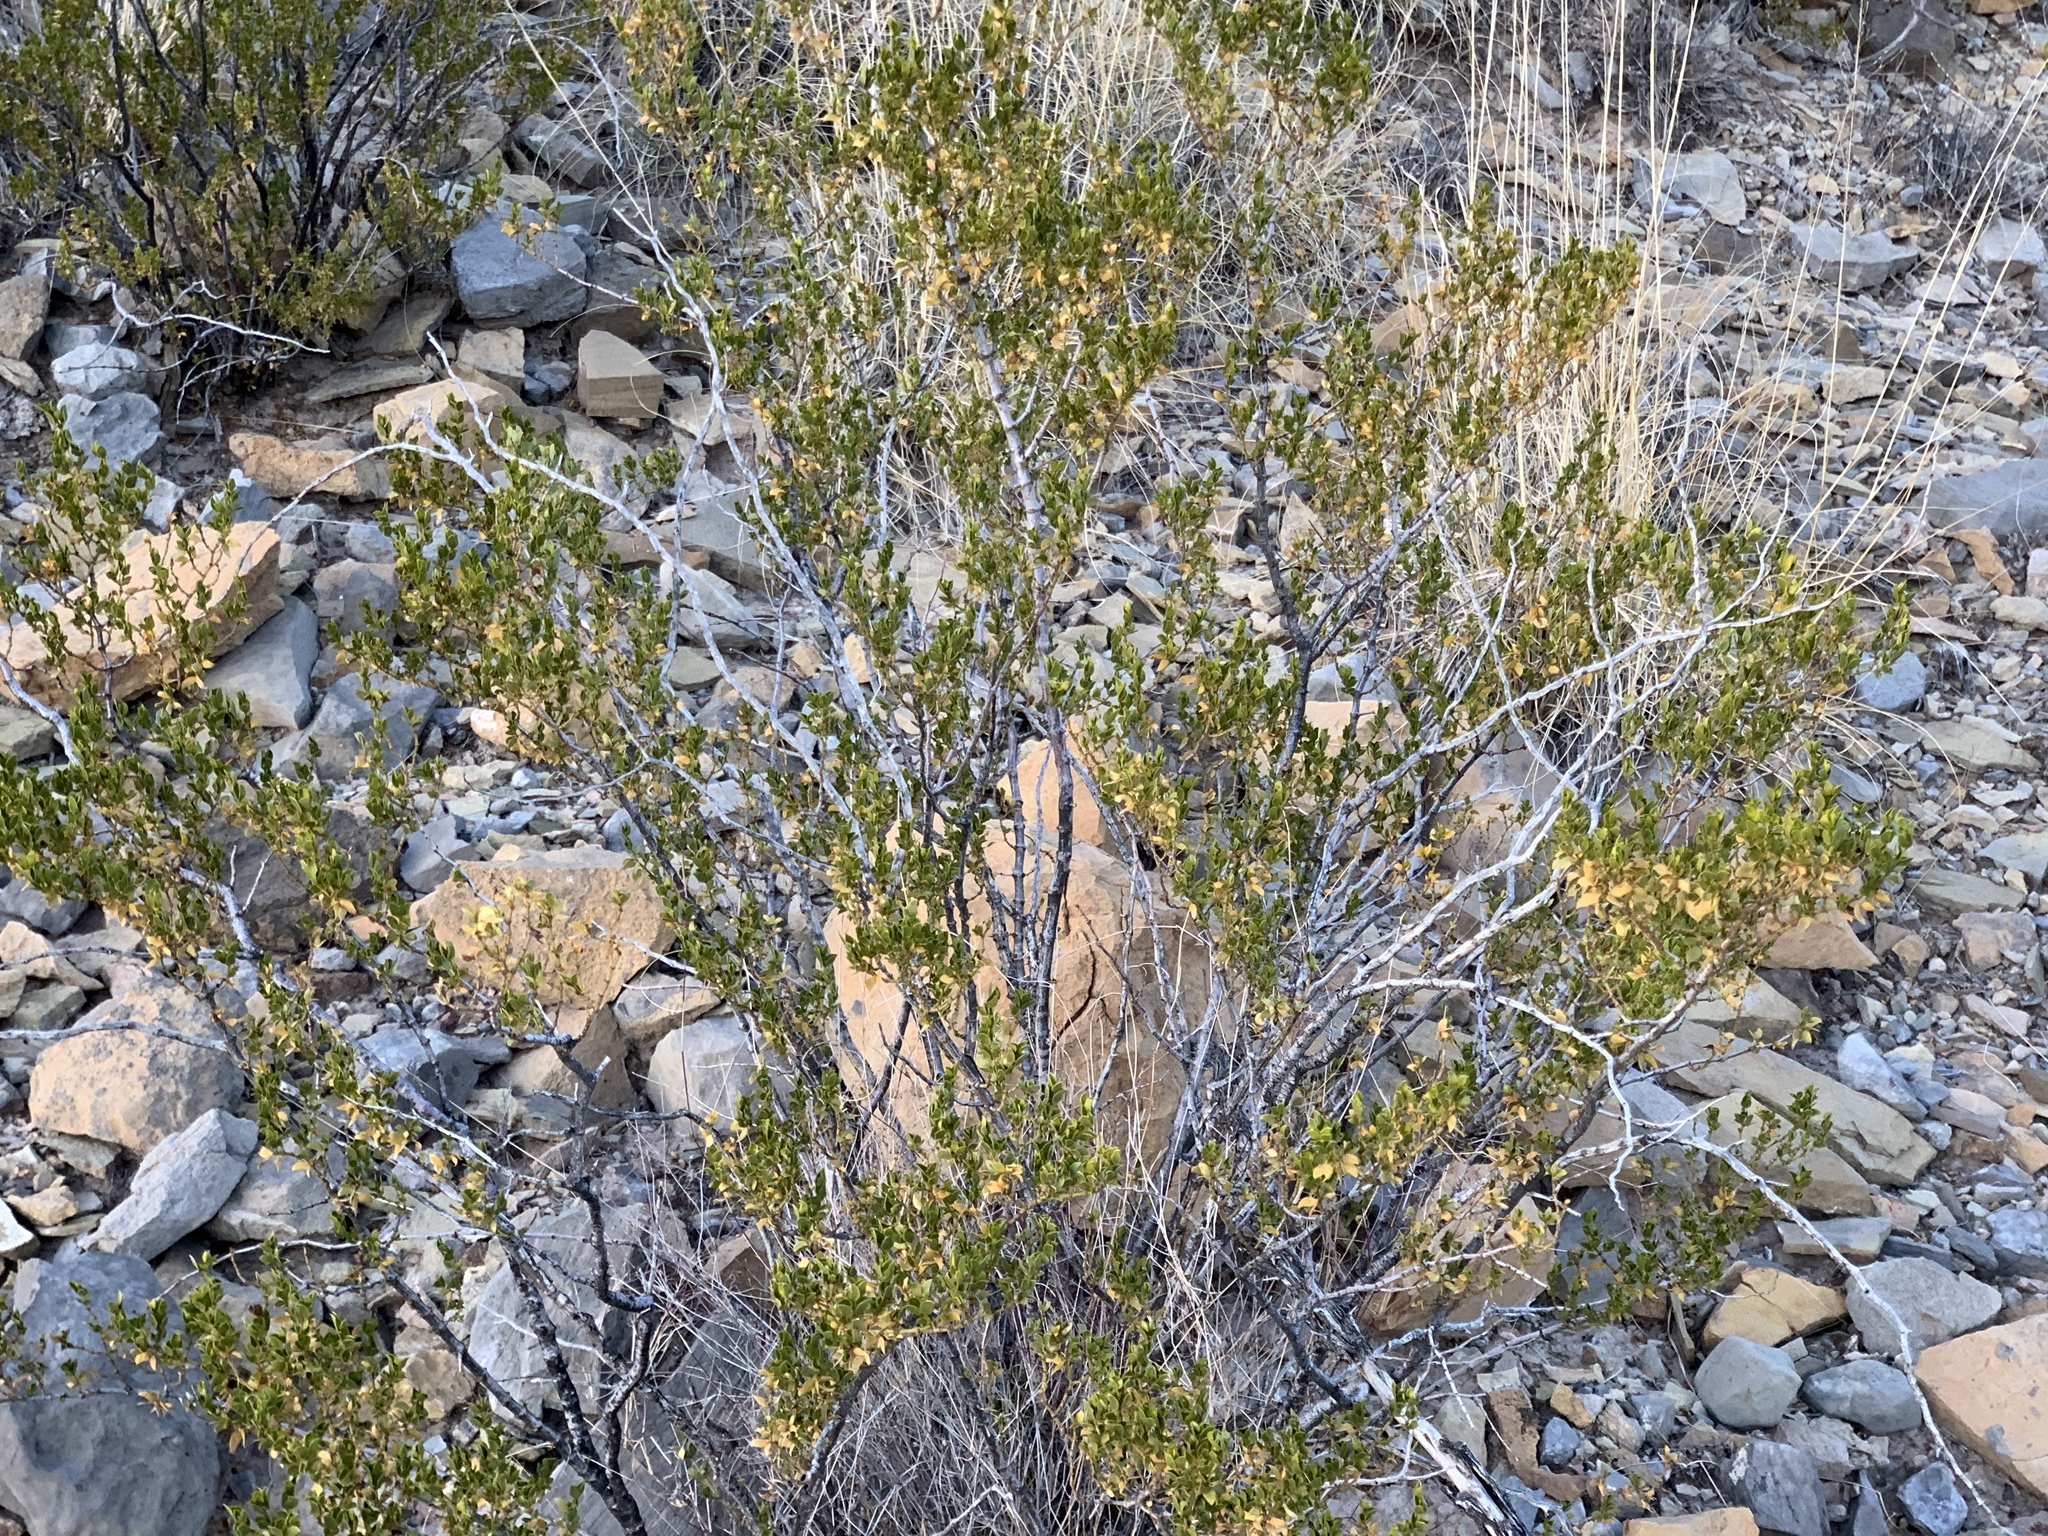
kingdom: Plantae
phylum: Tracheophyta
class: Magnoliopsida
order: Zygophyllales
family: Zygophyllaceae
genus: Larrea
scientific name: Larrea tridentata
